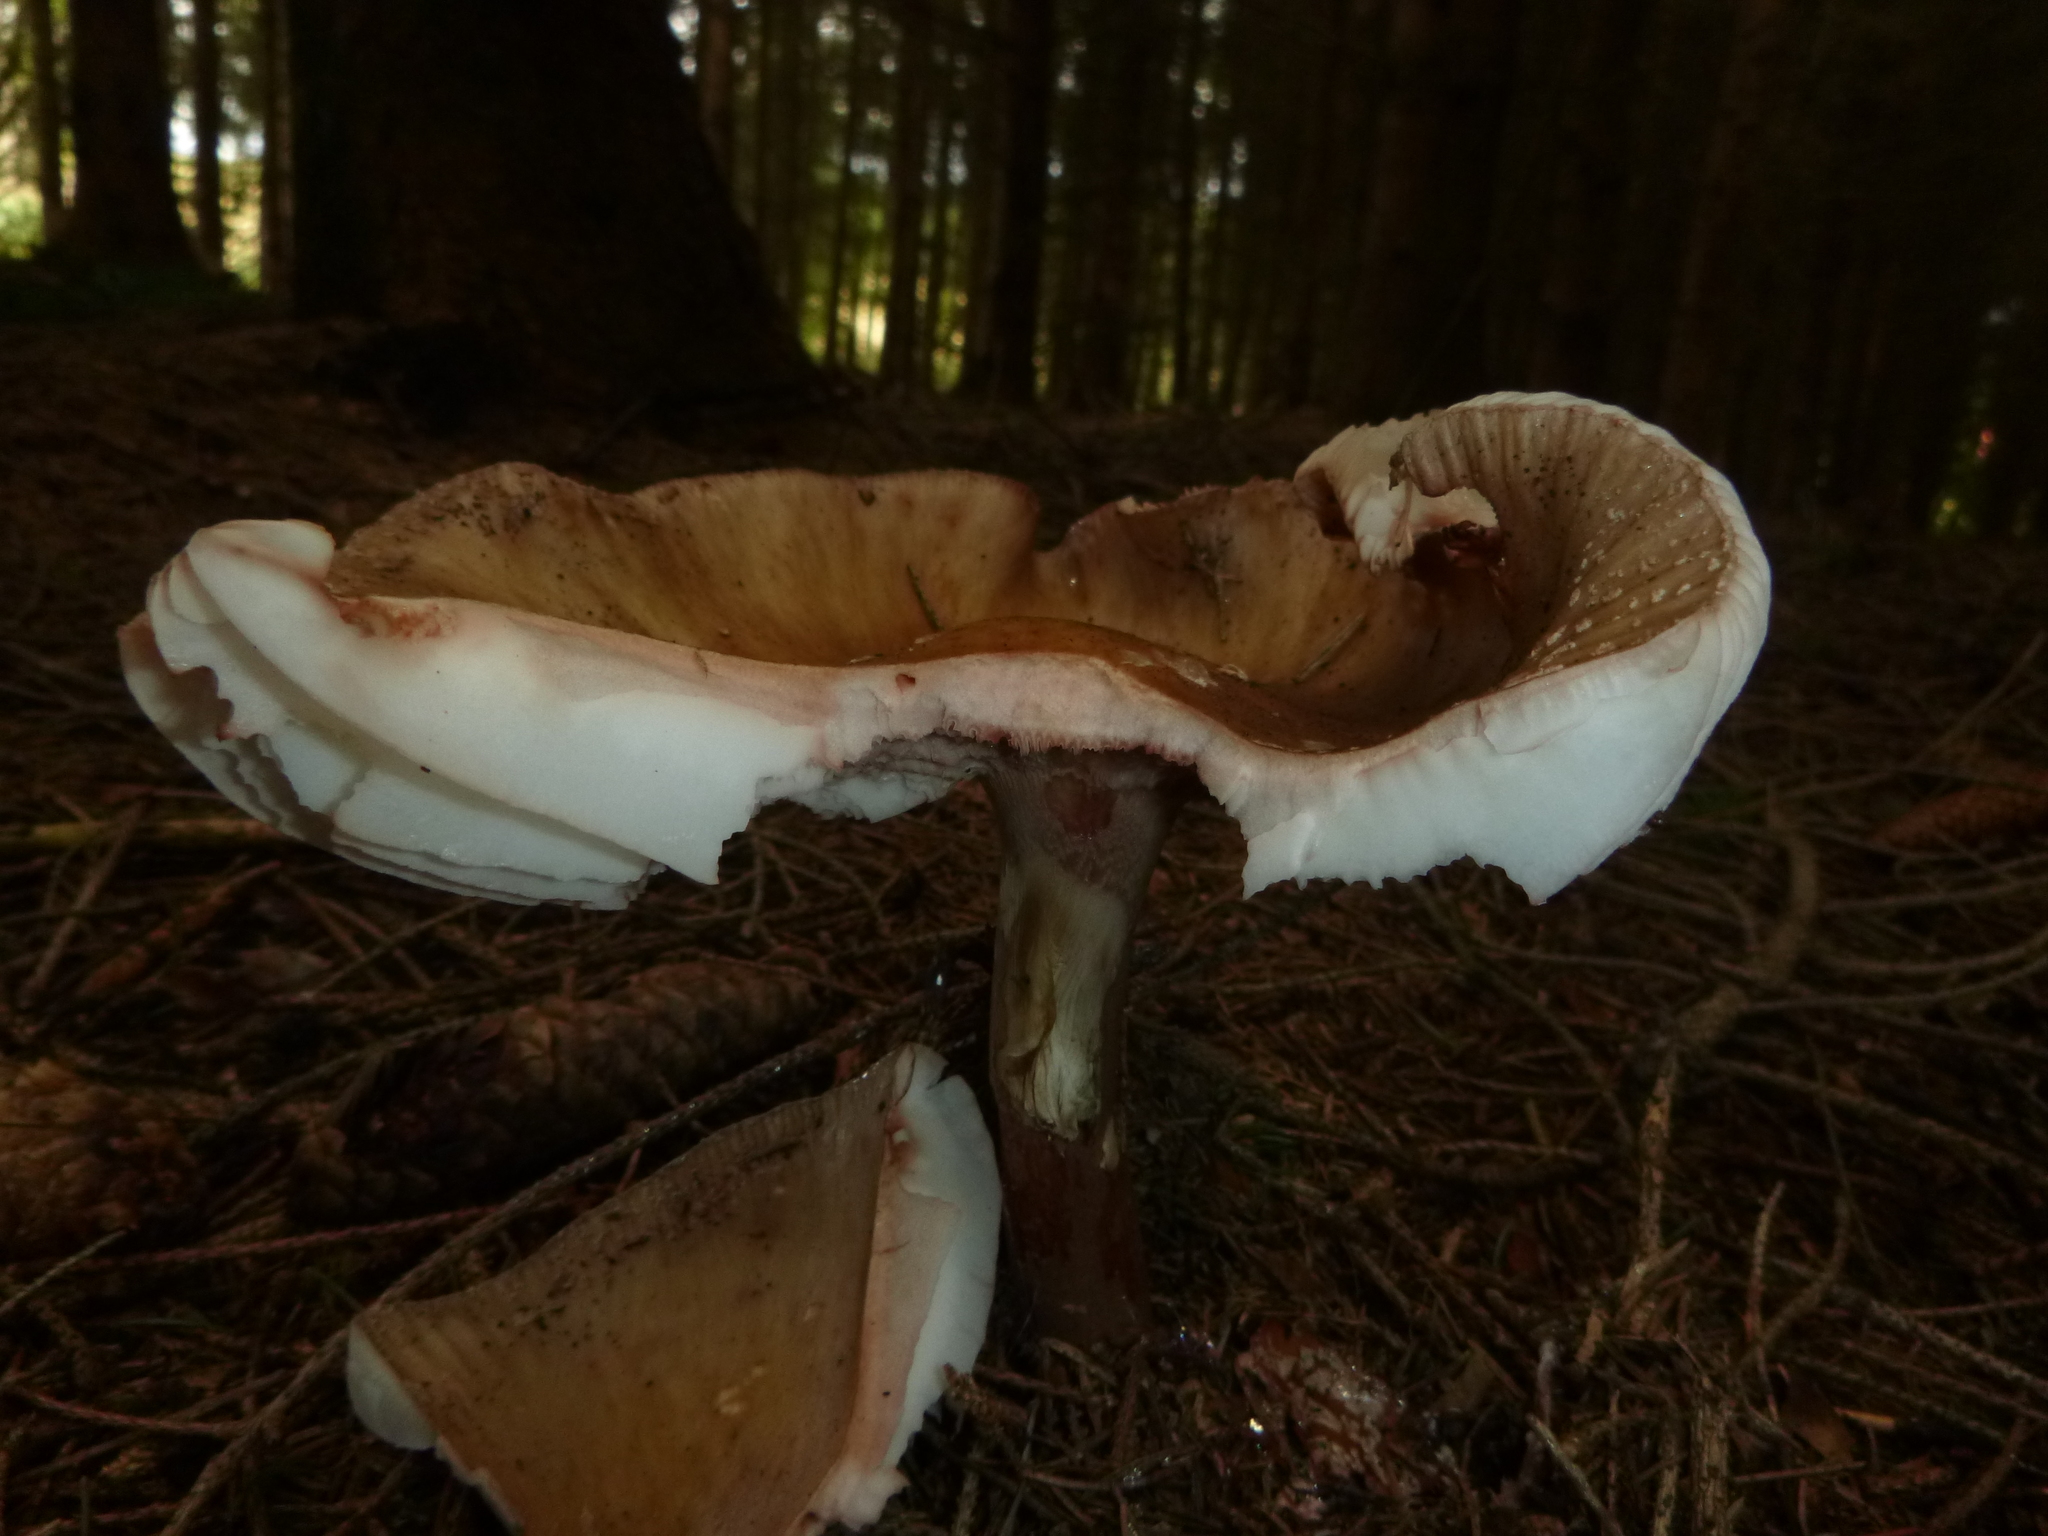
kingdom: Fungi
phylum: Basidiomycota
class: Agaricomycetes
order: Agaricales
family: Amanitaceae
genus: Amanita
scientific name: Amanita rubescens
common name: Blusher
